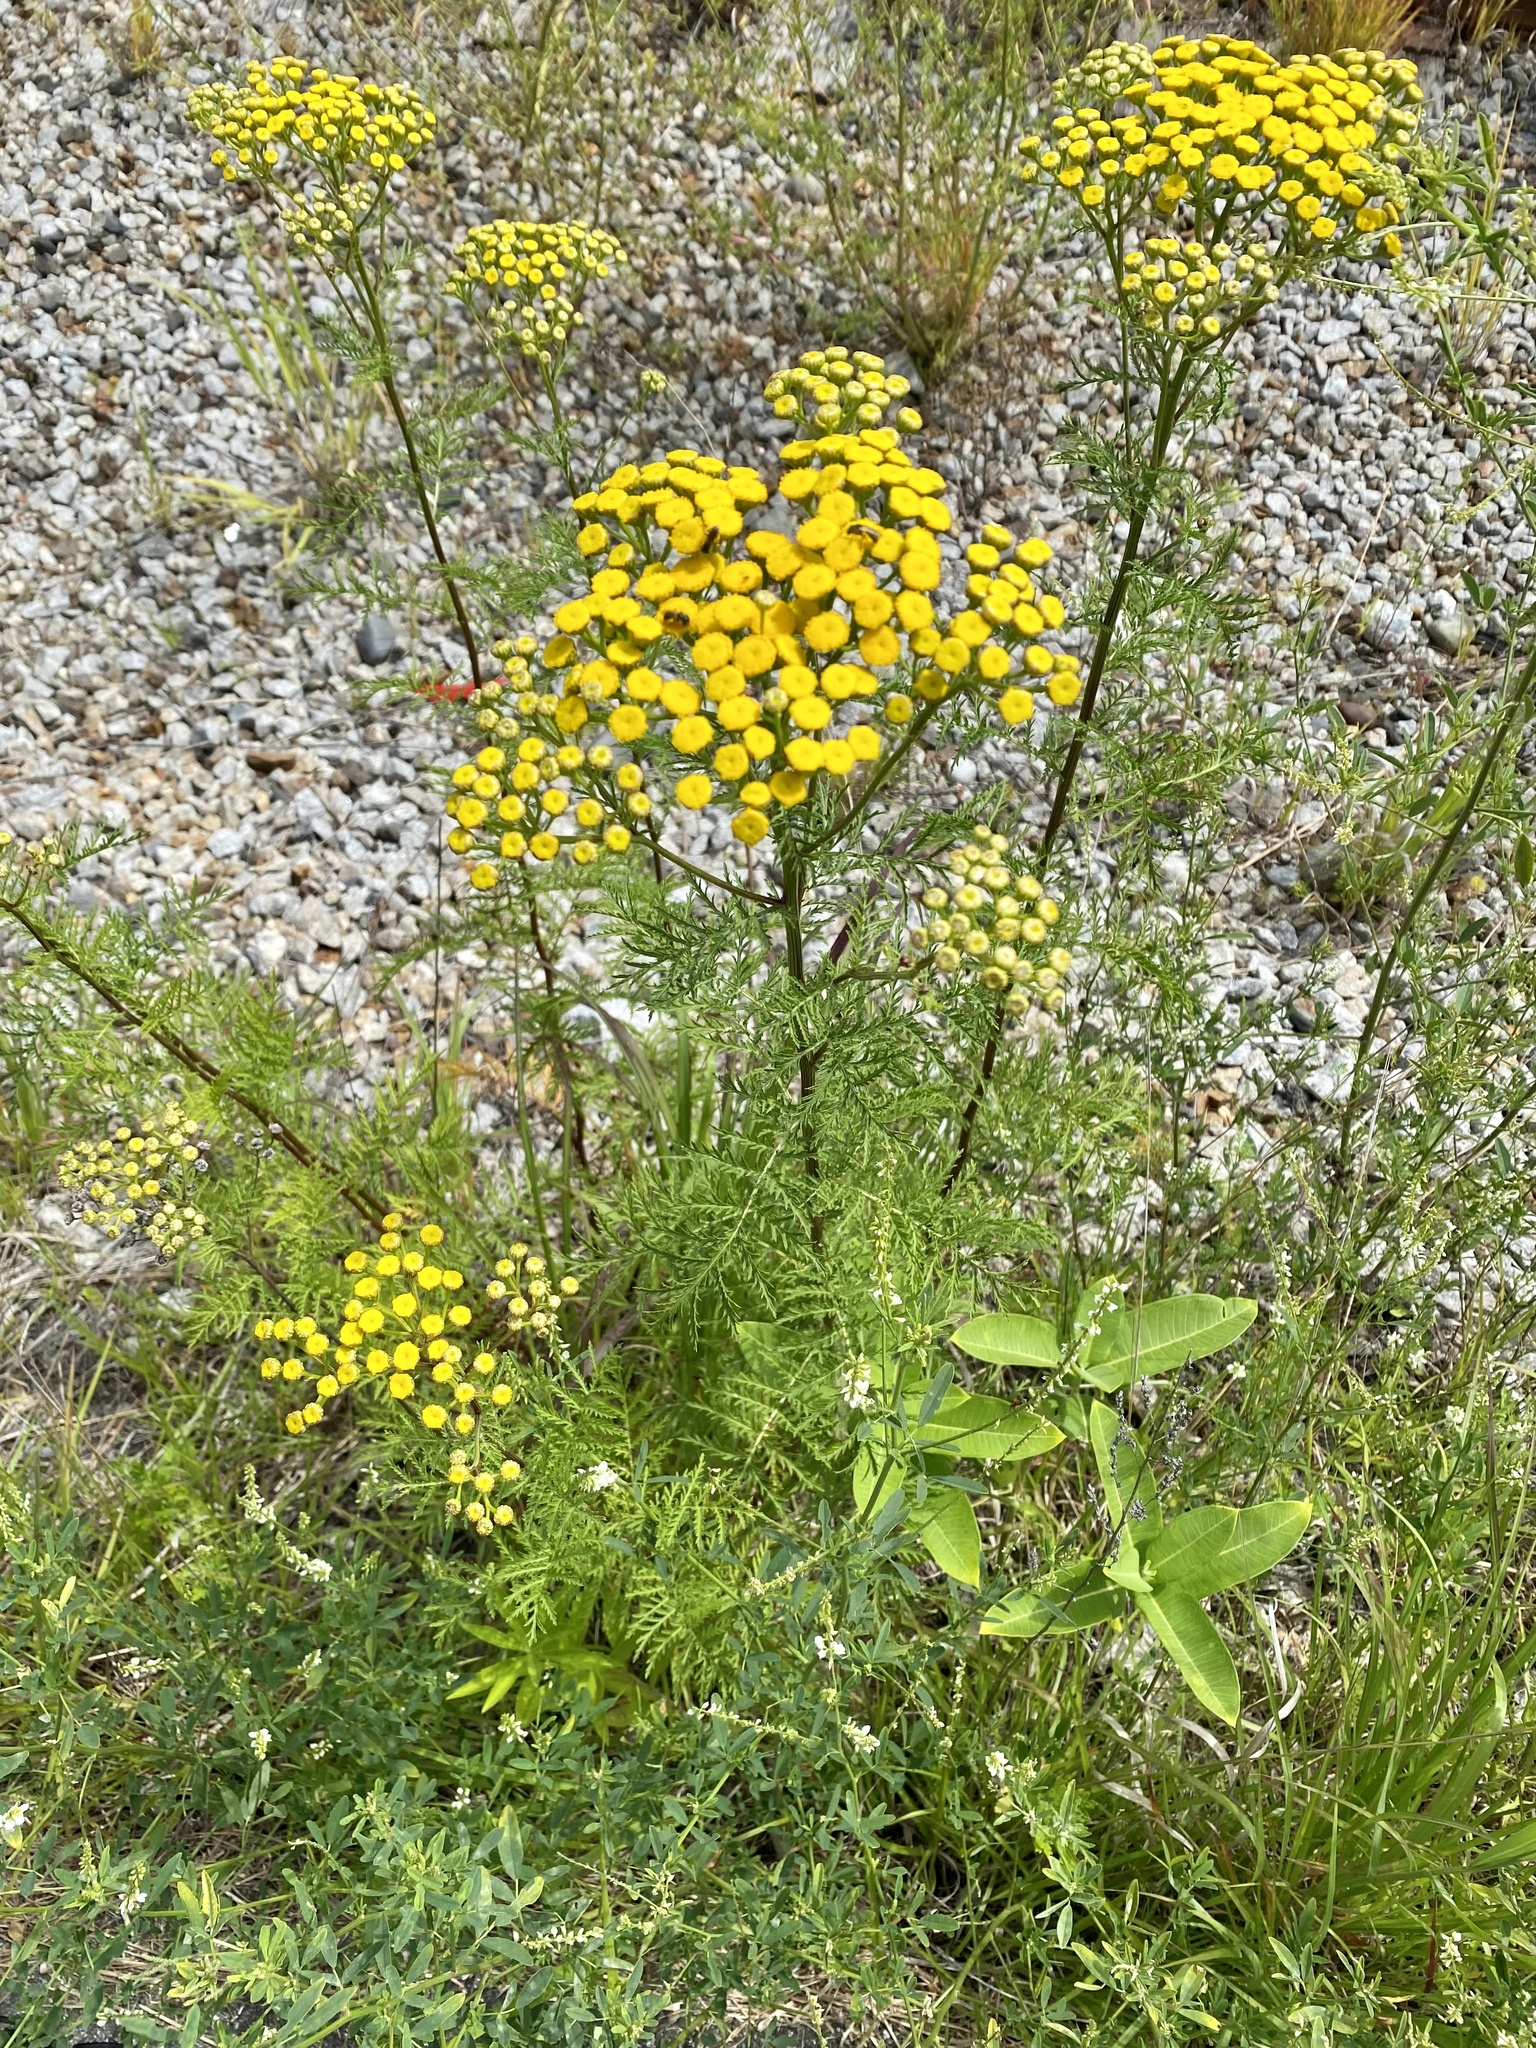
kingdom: Plantae
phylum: Tracheophyta
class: Magnoliopsida
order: Asterales
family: Asteraceae
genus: Tanacetum
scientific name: Tanacetum vulgare
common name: Common tansy
